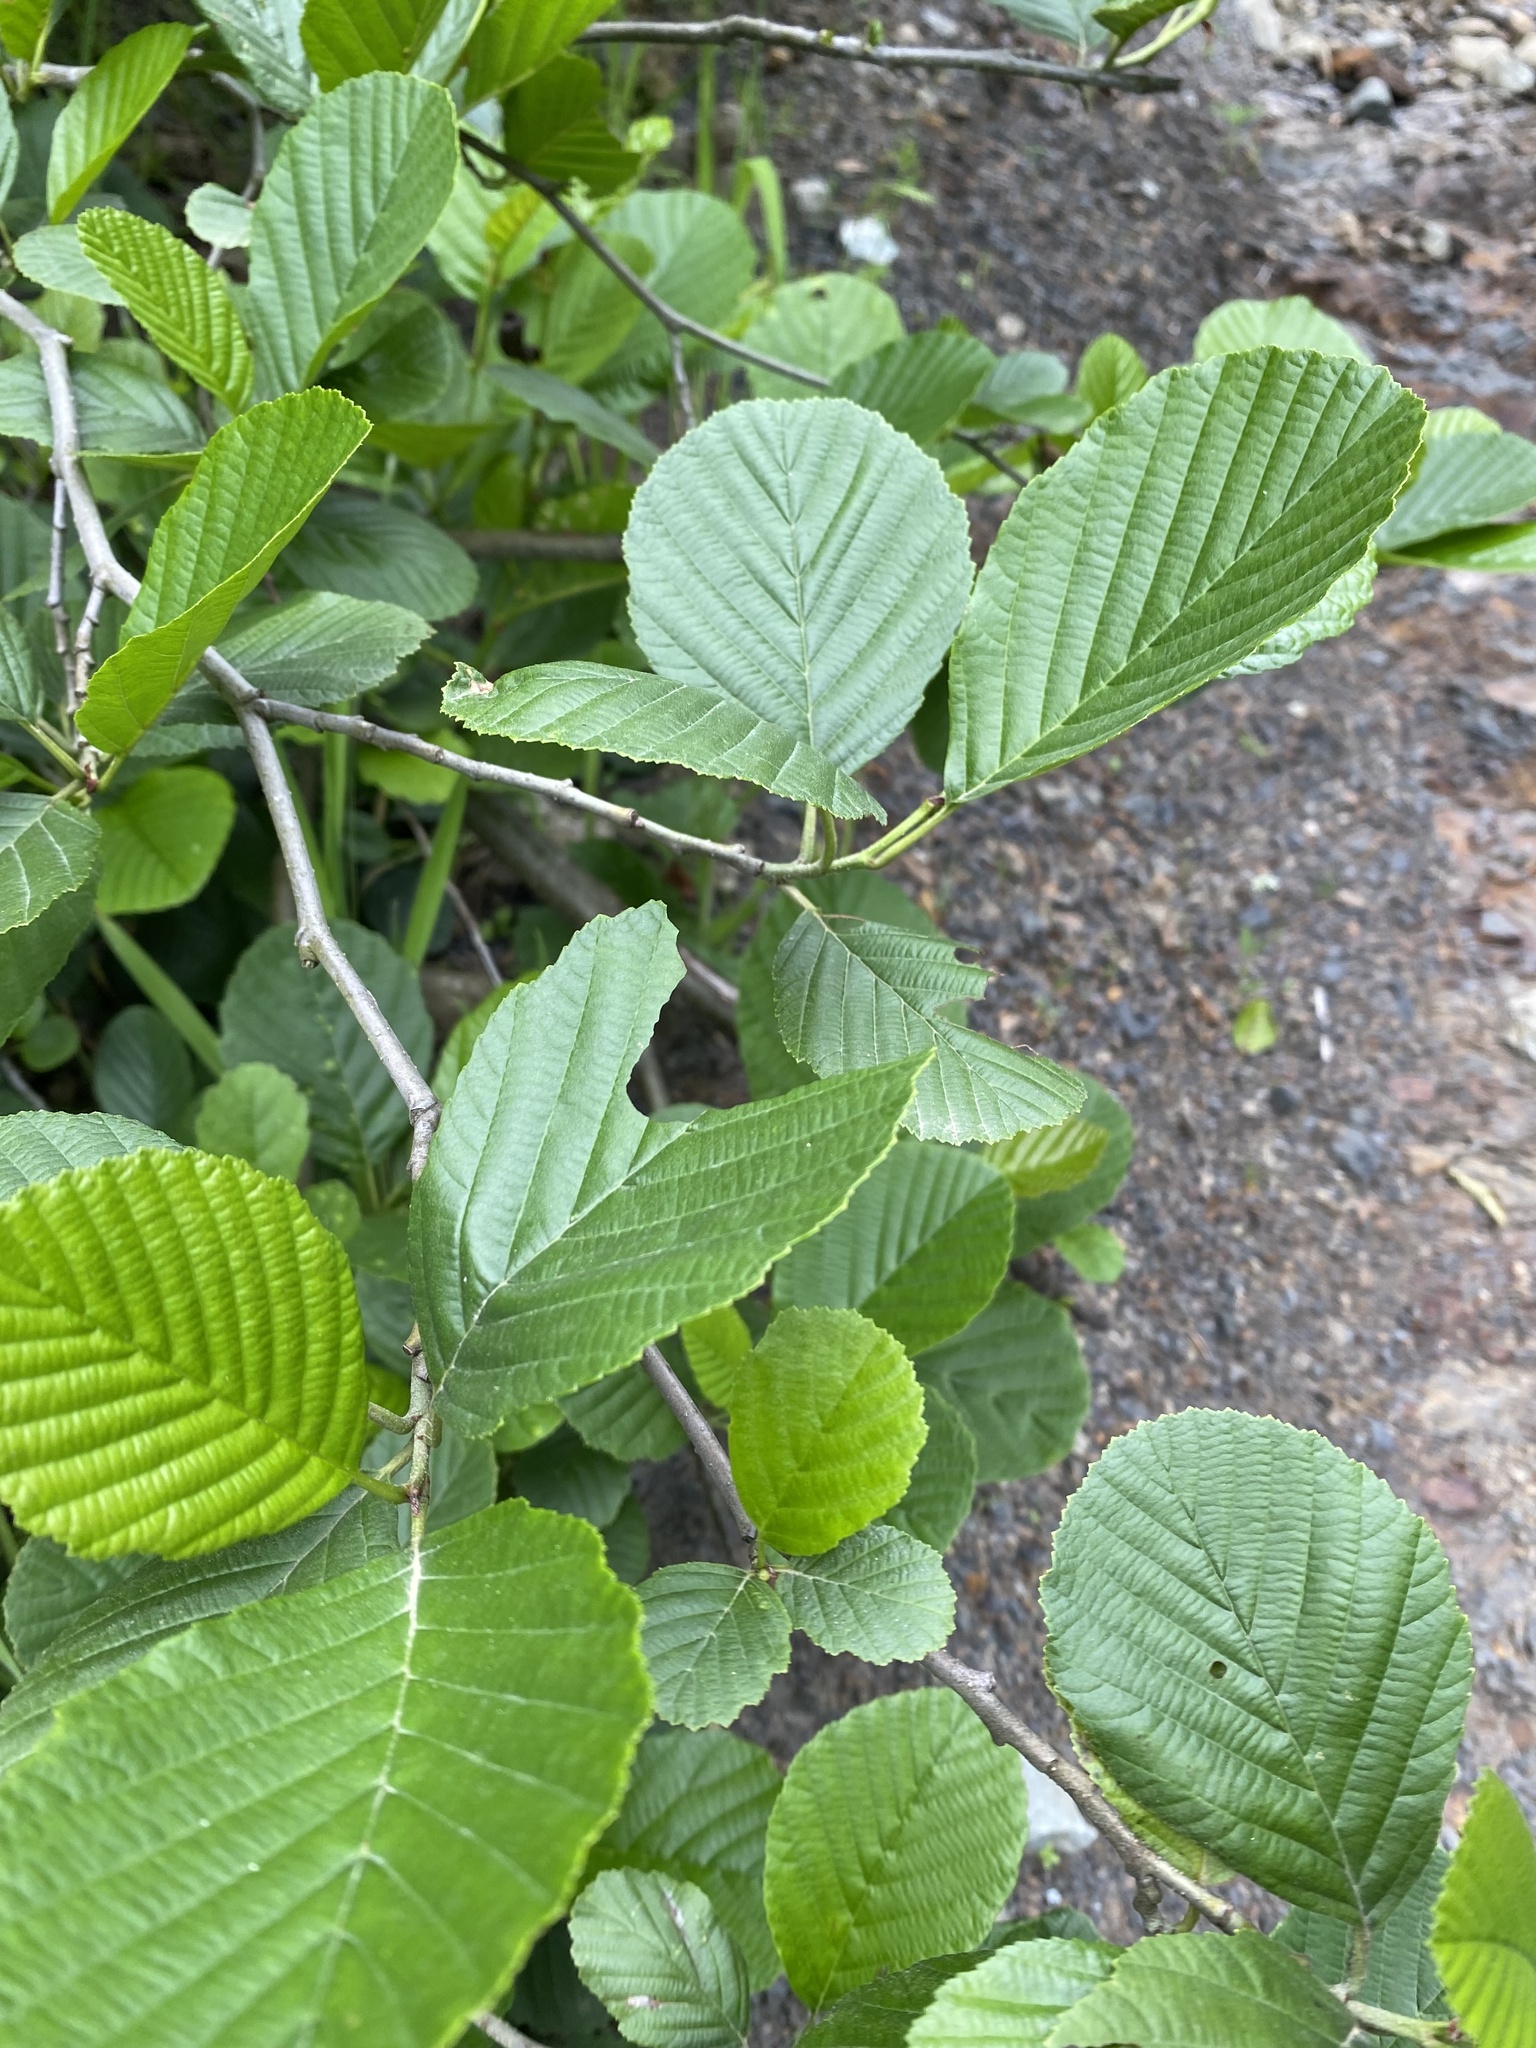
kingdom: Plantae
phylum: Tracheophyta
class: Magnoliopsida
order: Fagales
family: Betulaceae
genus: Alnus
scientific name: Alnus glutinosa
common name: Black alder
